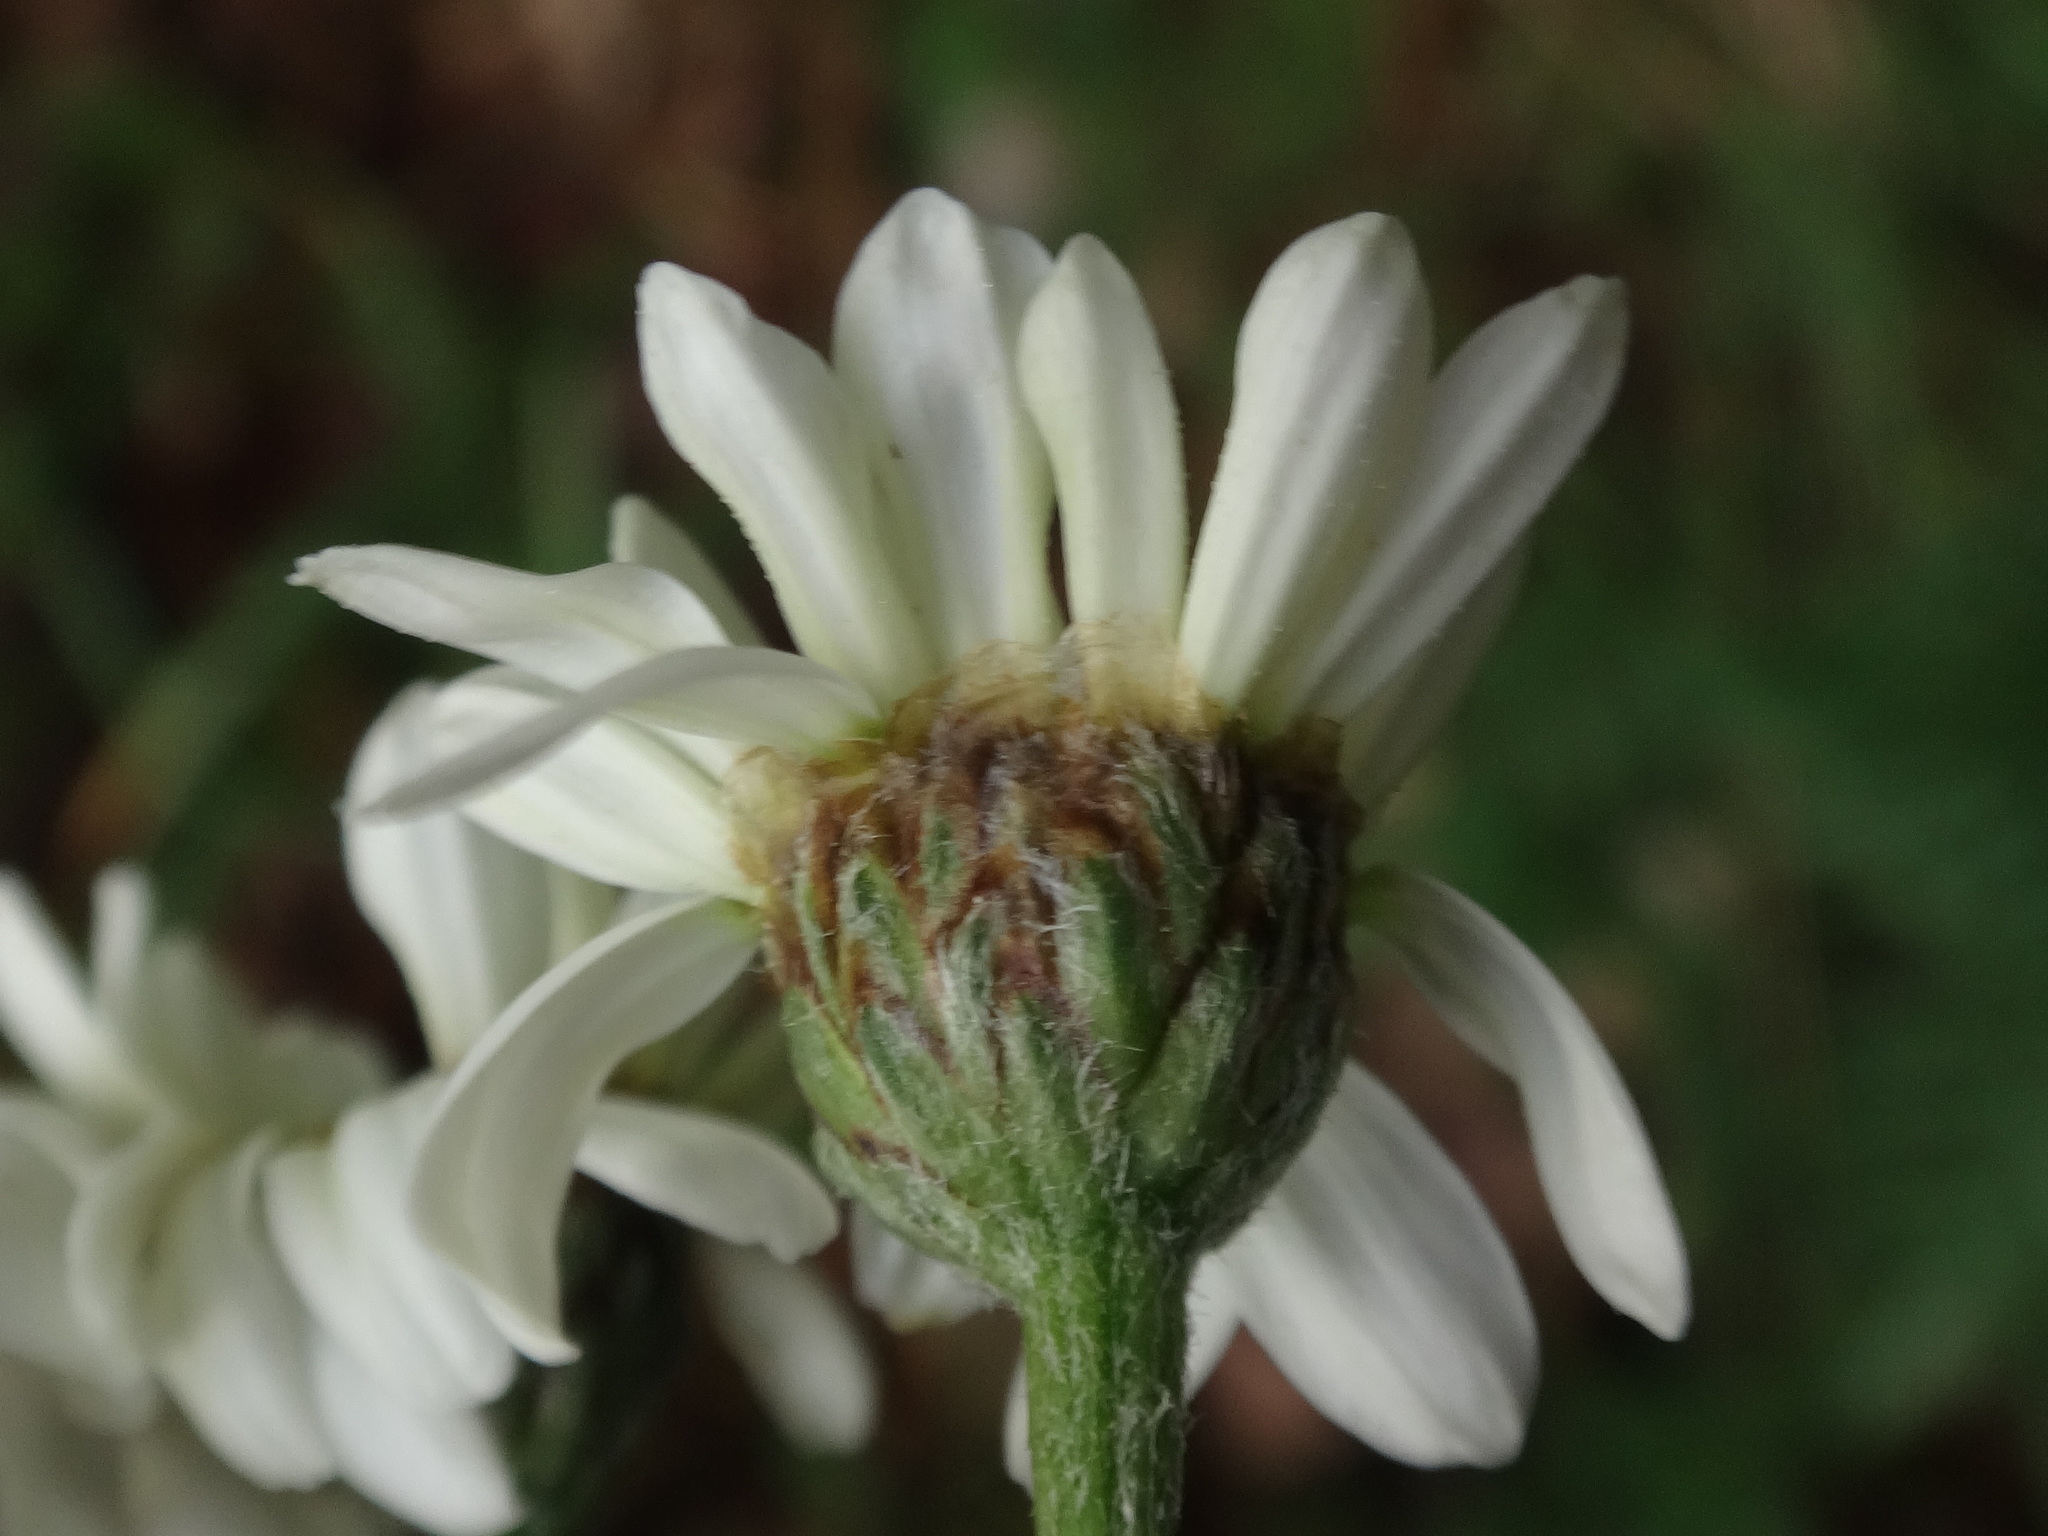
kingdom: Plantae
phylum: Tracheophyta
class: Magnoliopsida
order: Asterales
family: Asteraceae
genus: Tanacetum
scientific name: Tanacetum corymbosum
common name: Scentless feverfew
